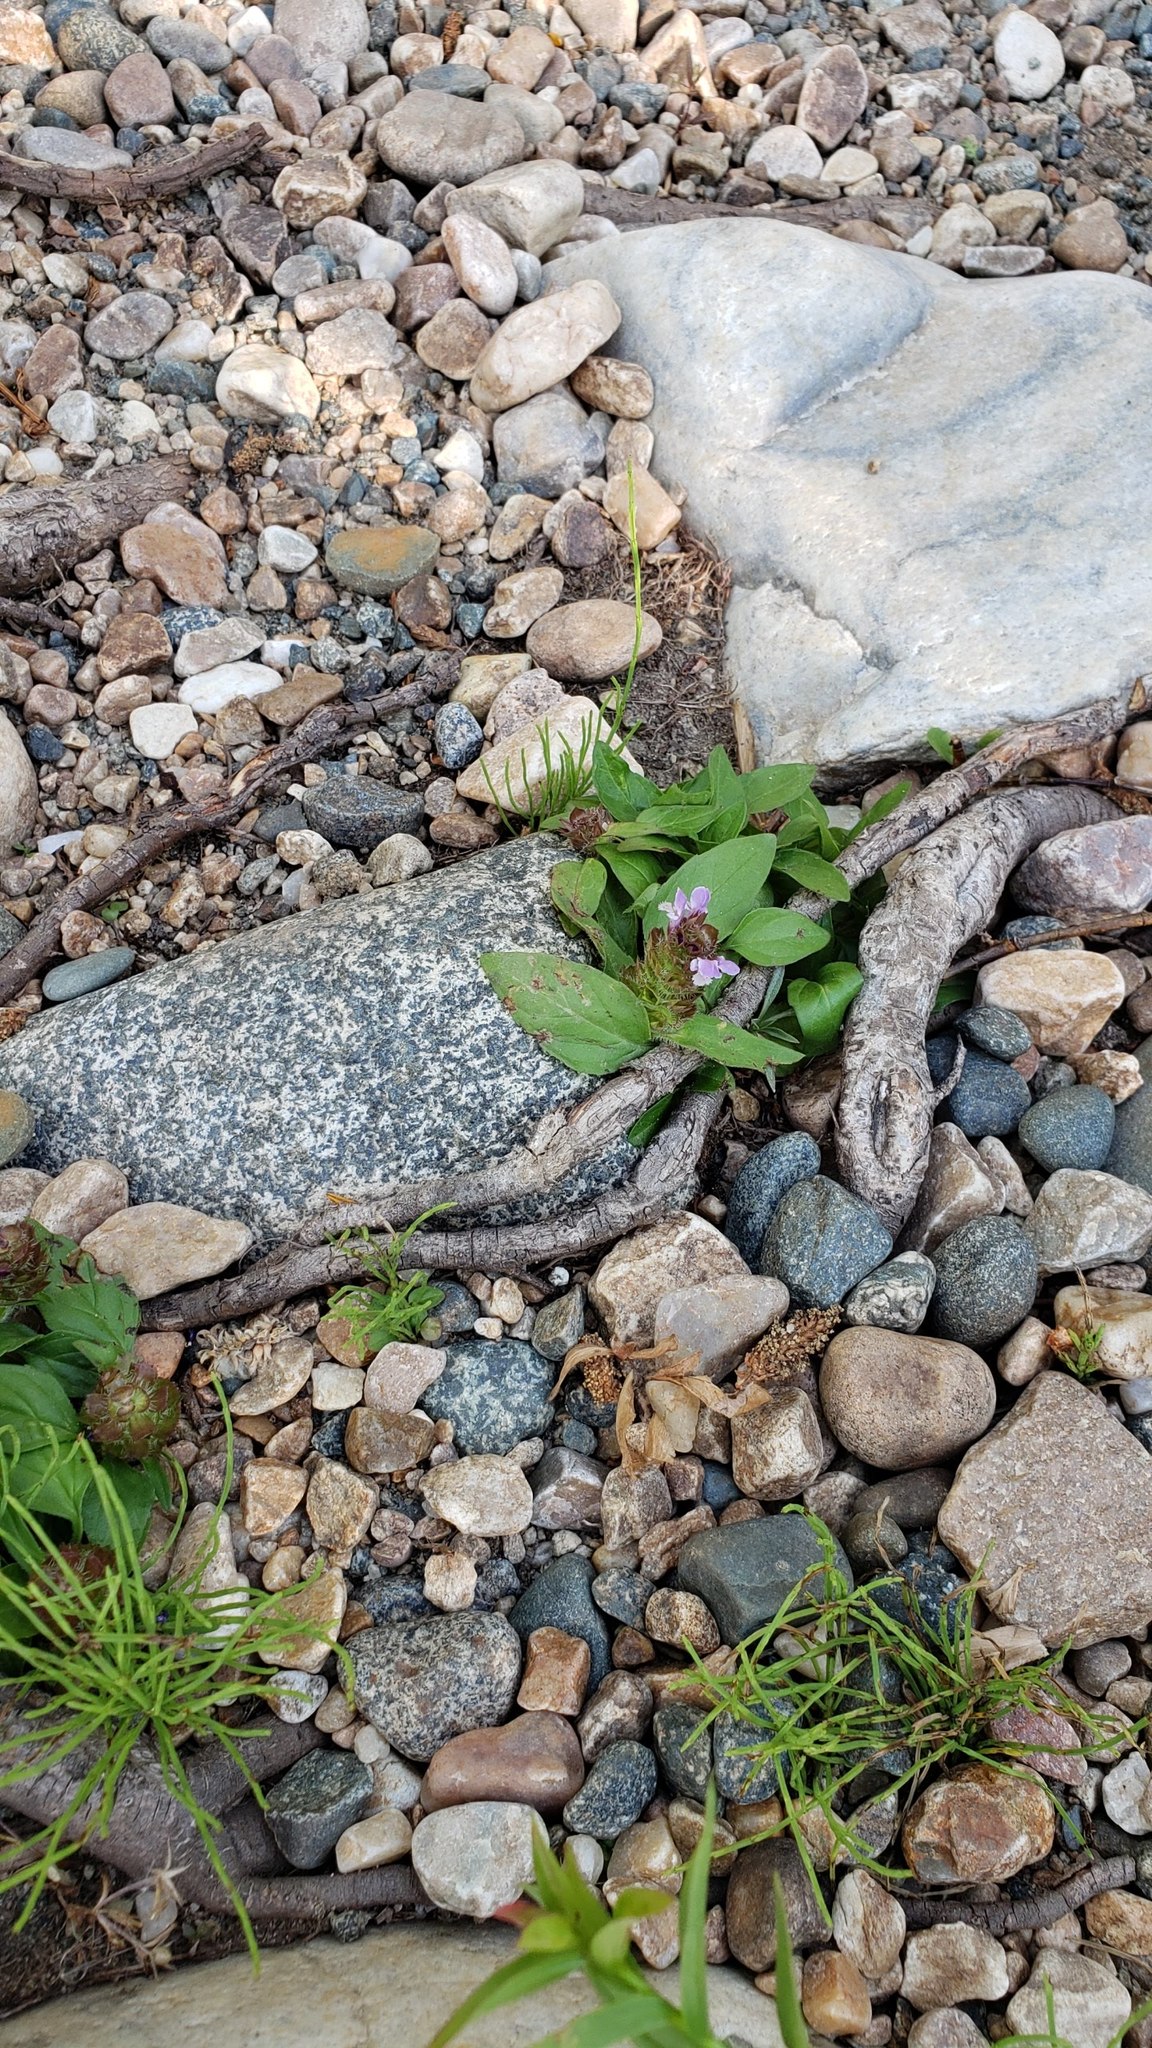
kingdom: Plantae
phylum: Tracheophyta
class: Magnoliopsida
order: Lamiales
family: Lamiaceae
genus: Prunella
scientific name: Prunella vulgaris
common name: Heal-all
